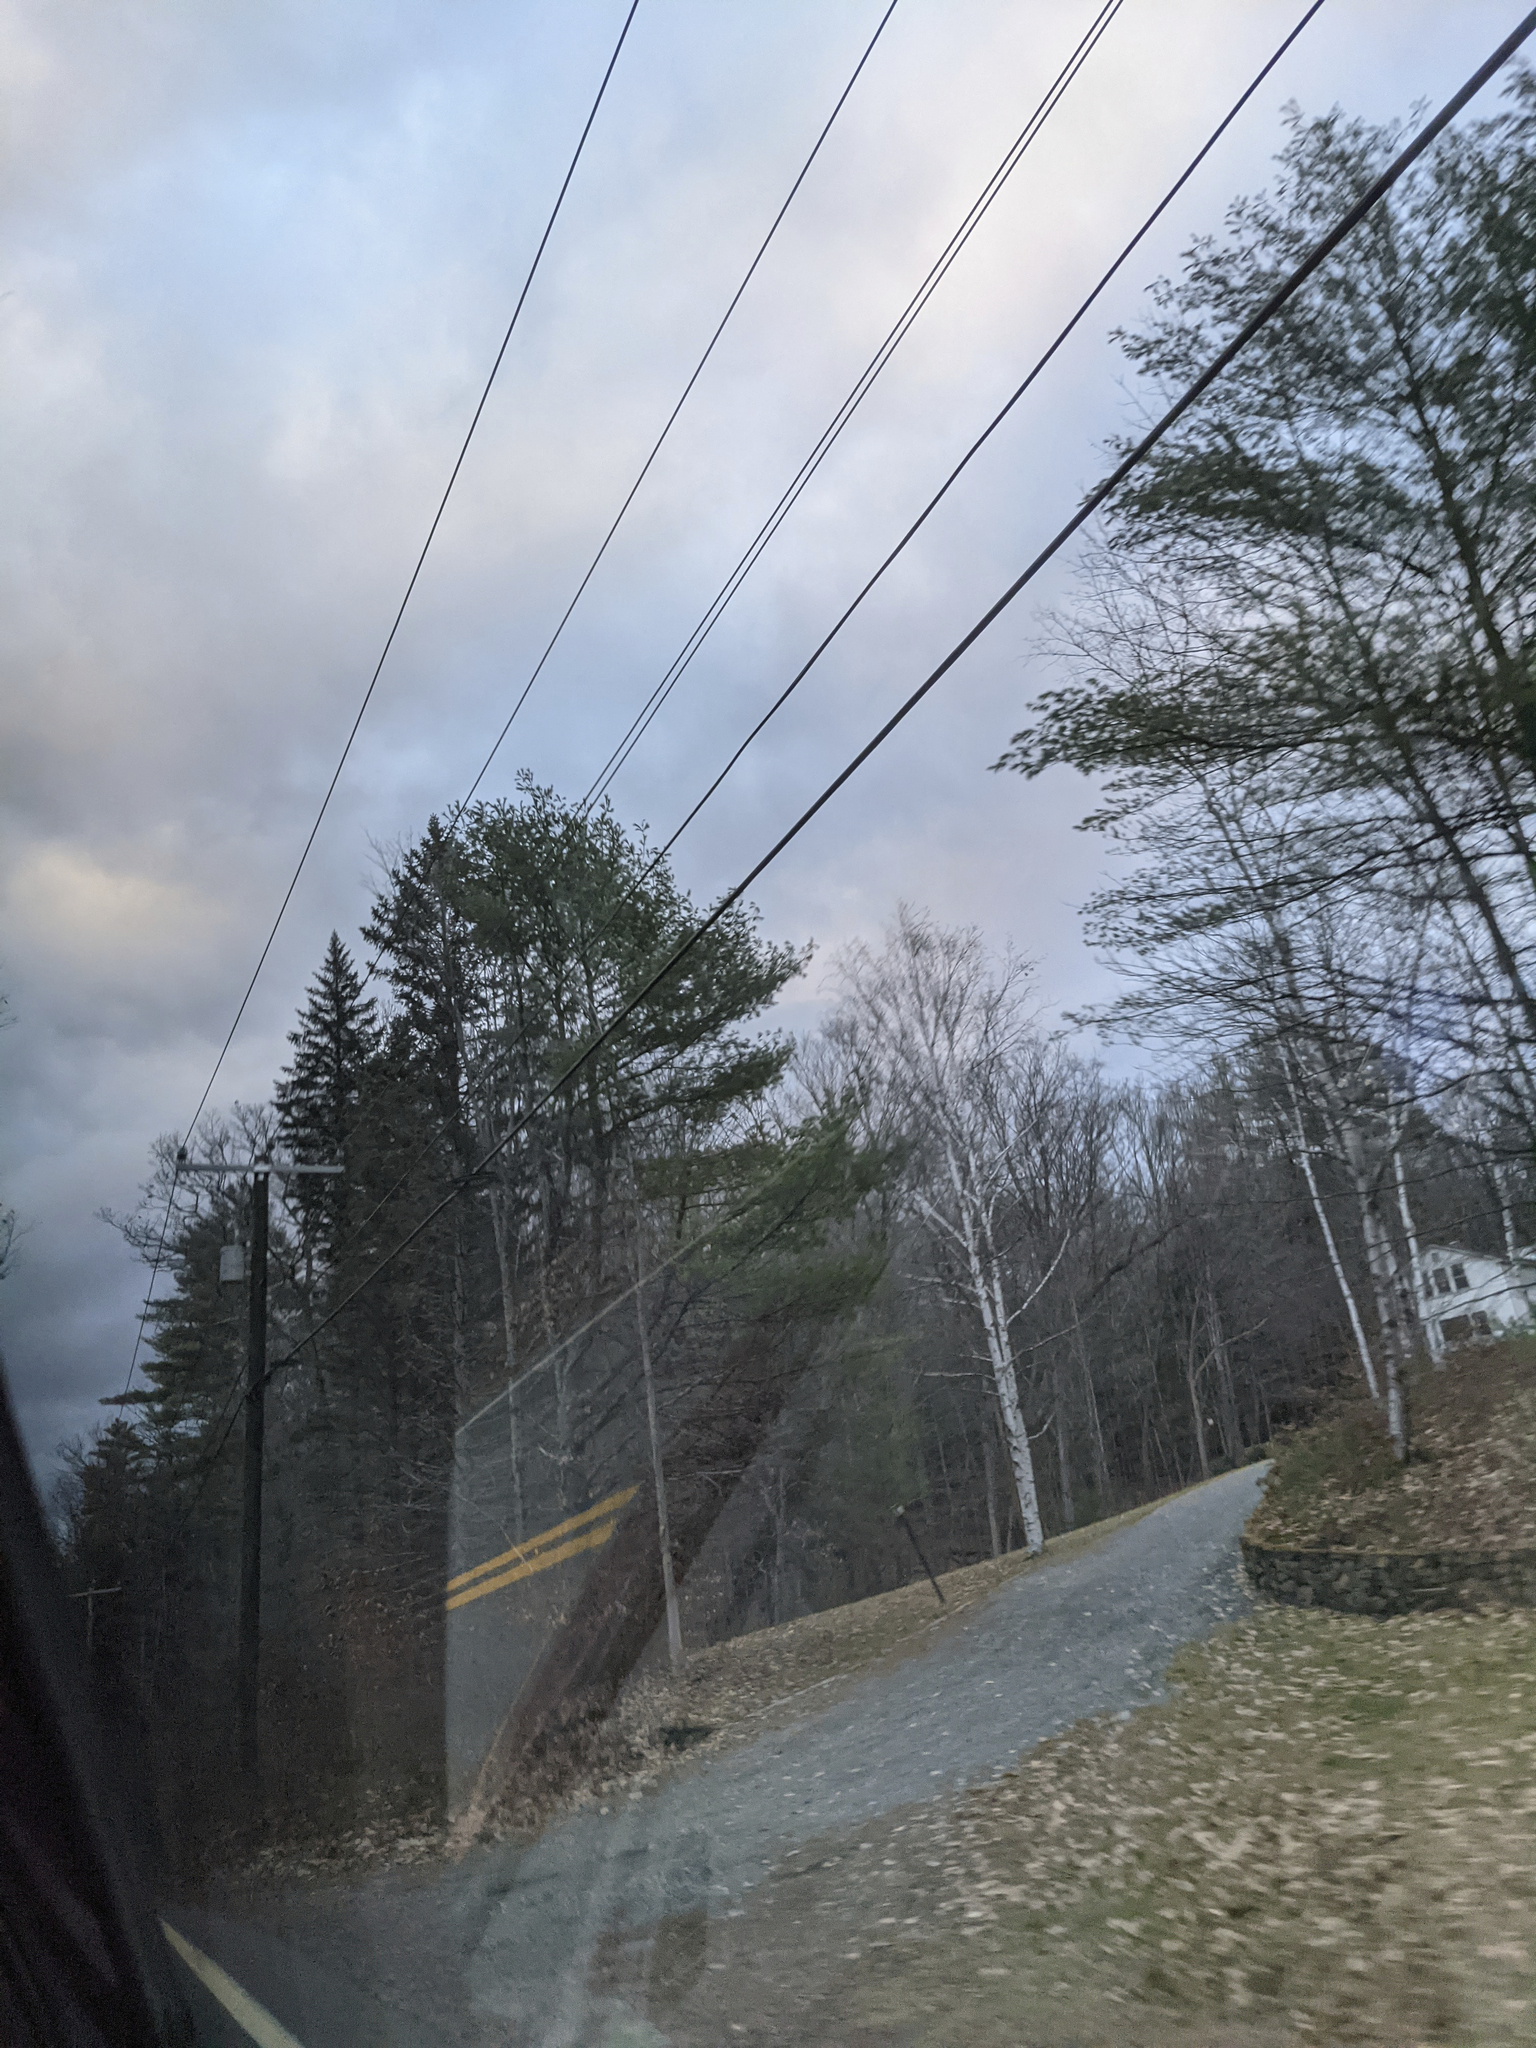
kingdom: Plantae
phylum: Tracheophyta
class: Pinopsida
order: Pinales
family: Pinaceae
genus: Pinus
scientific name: Pinus strobus
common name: Weymouth pine
